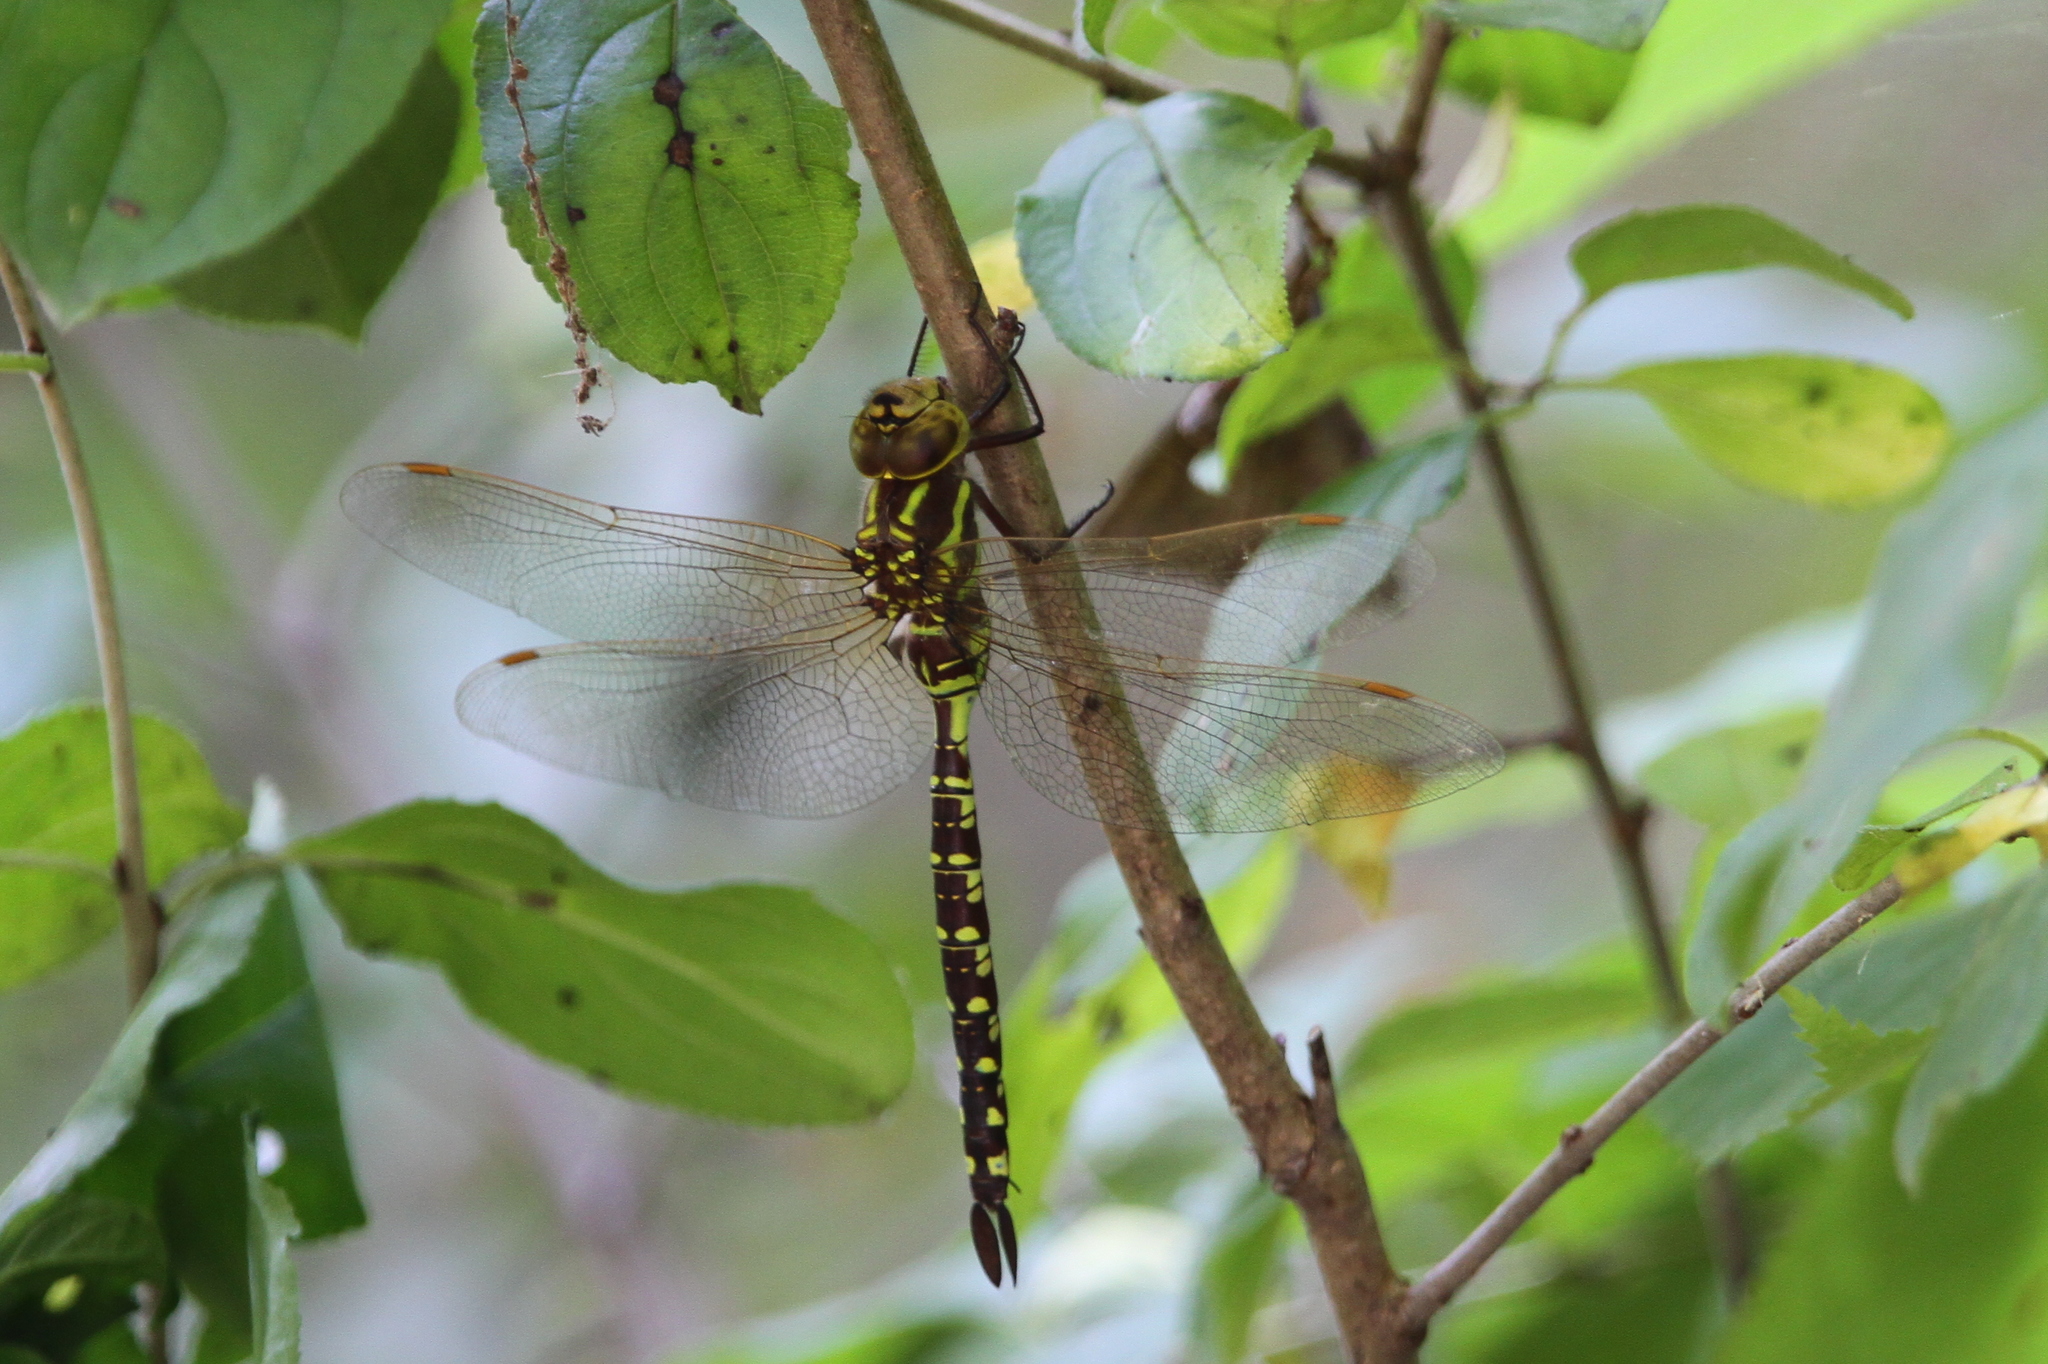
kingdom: Animalia
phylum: Arthropoda
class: Insecta
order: Odonata
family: Aeshnidae
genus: Aeshna
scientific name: Aeshna constricta
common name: Lance-tipped darner
